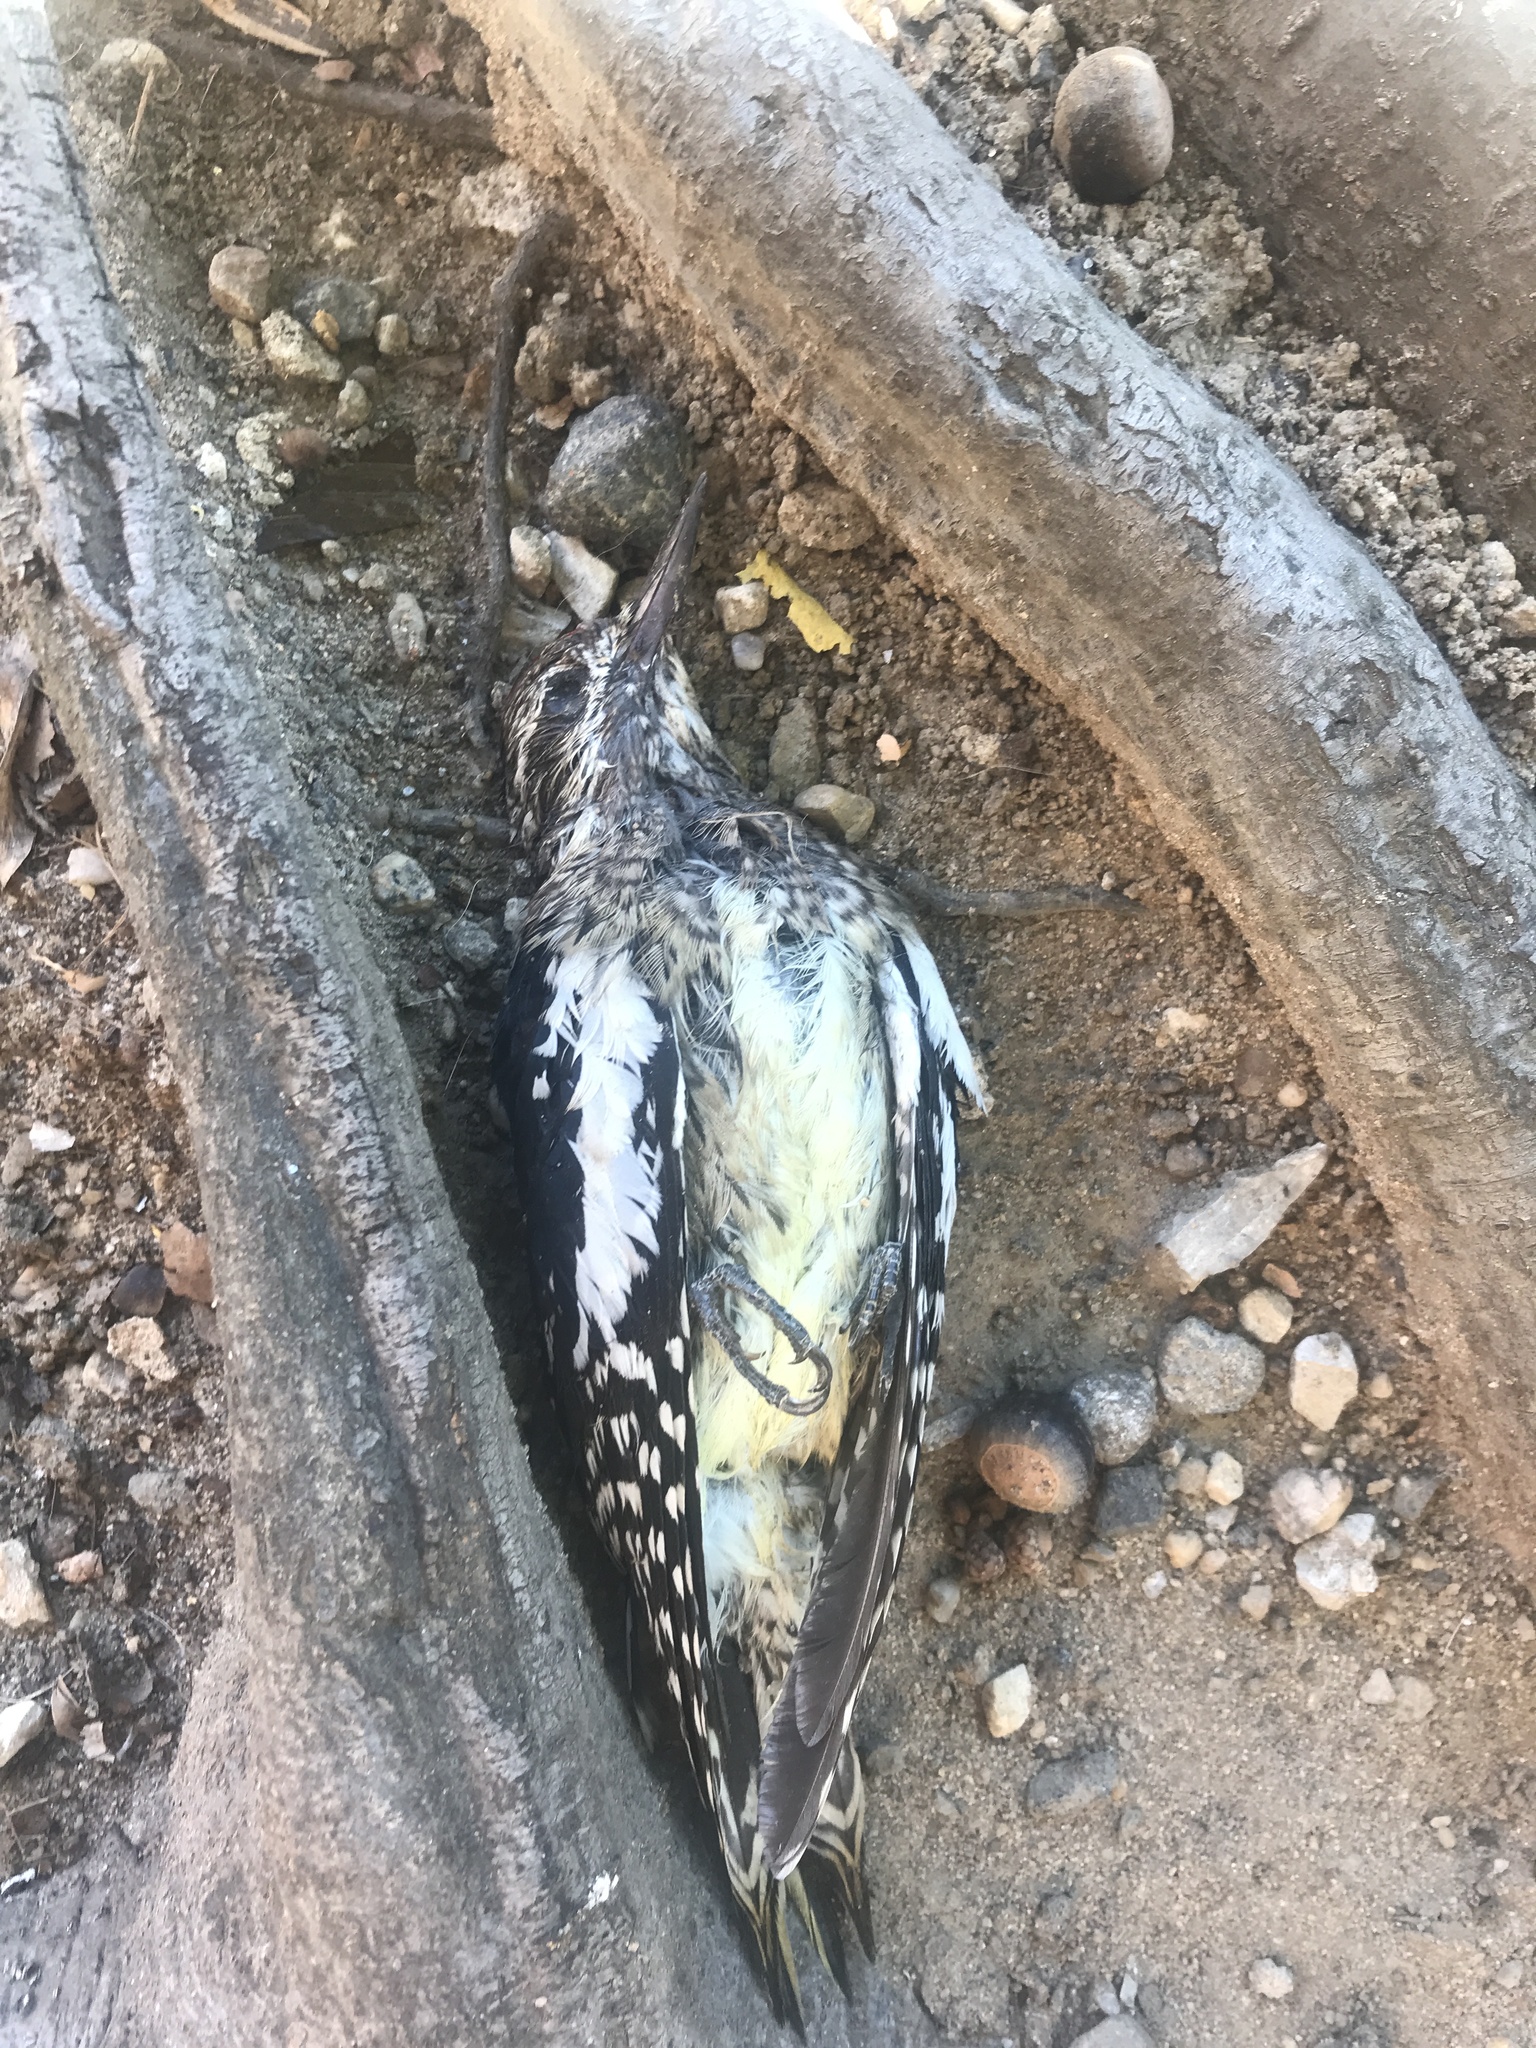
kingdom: Animalia
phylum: Chordata
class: Aves
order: Piciformes
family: Picidae
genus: Sphyrapicus
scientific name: Sphyrapicus varius
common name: Yellow-bellied sapsucker
